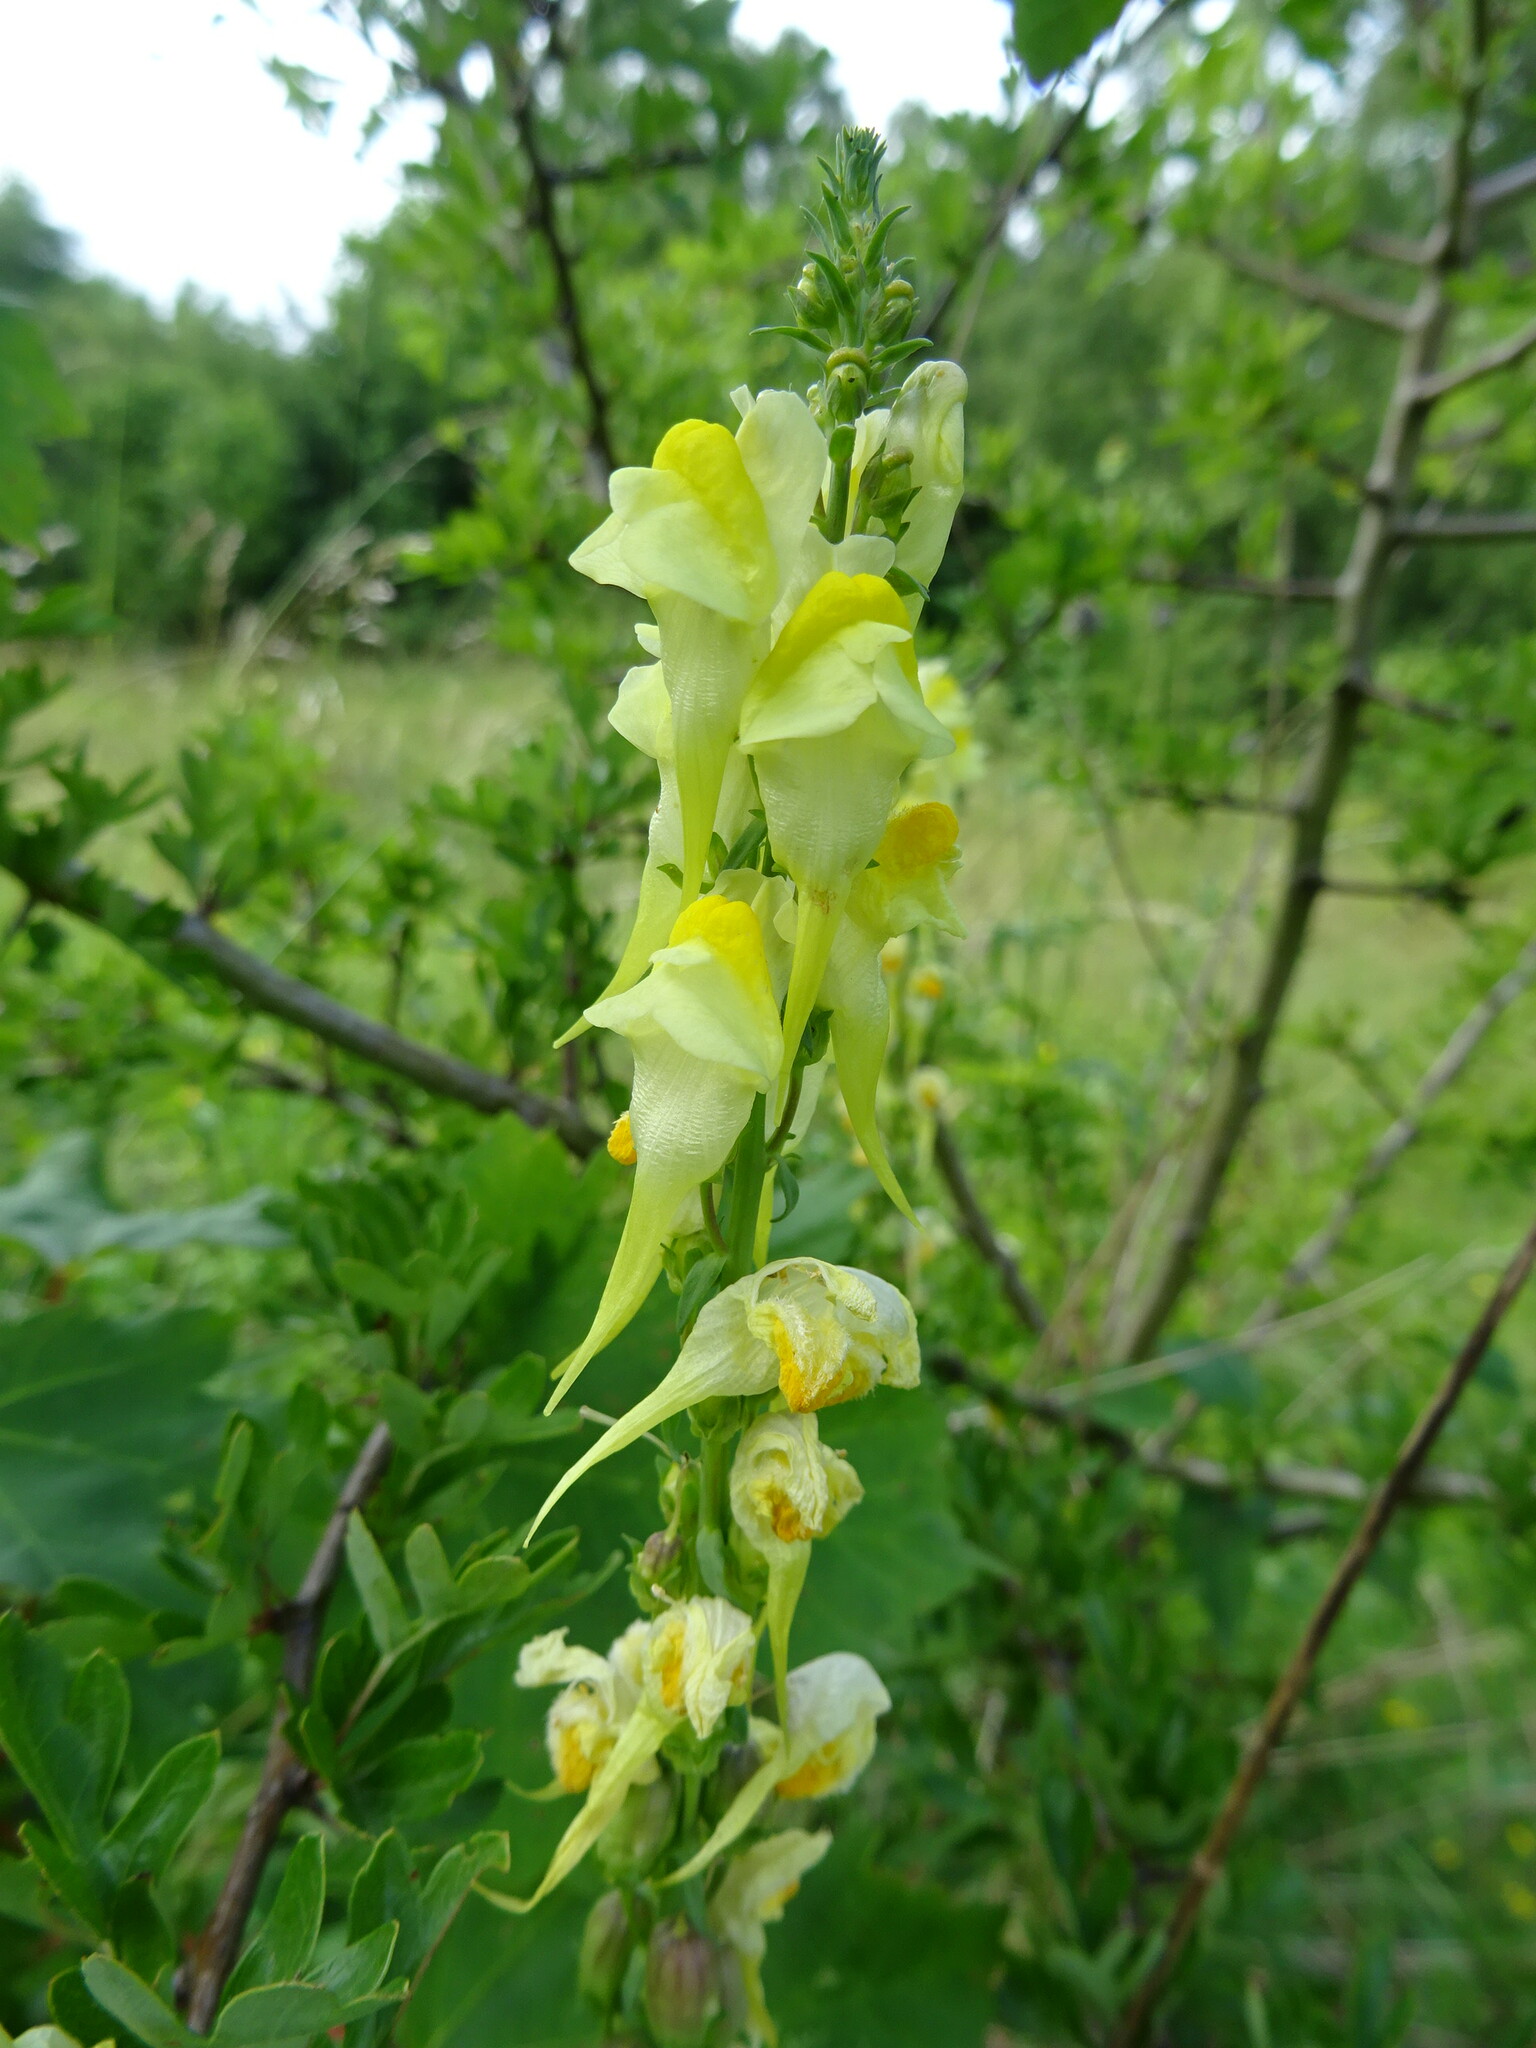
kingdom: Plantae
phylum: Tracheophyta
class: Magnoliopsida
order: Lamiales
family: Plantaginaceae
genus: Linaria
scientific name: Linaria vulgaris
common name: Butter and eggs
